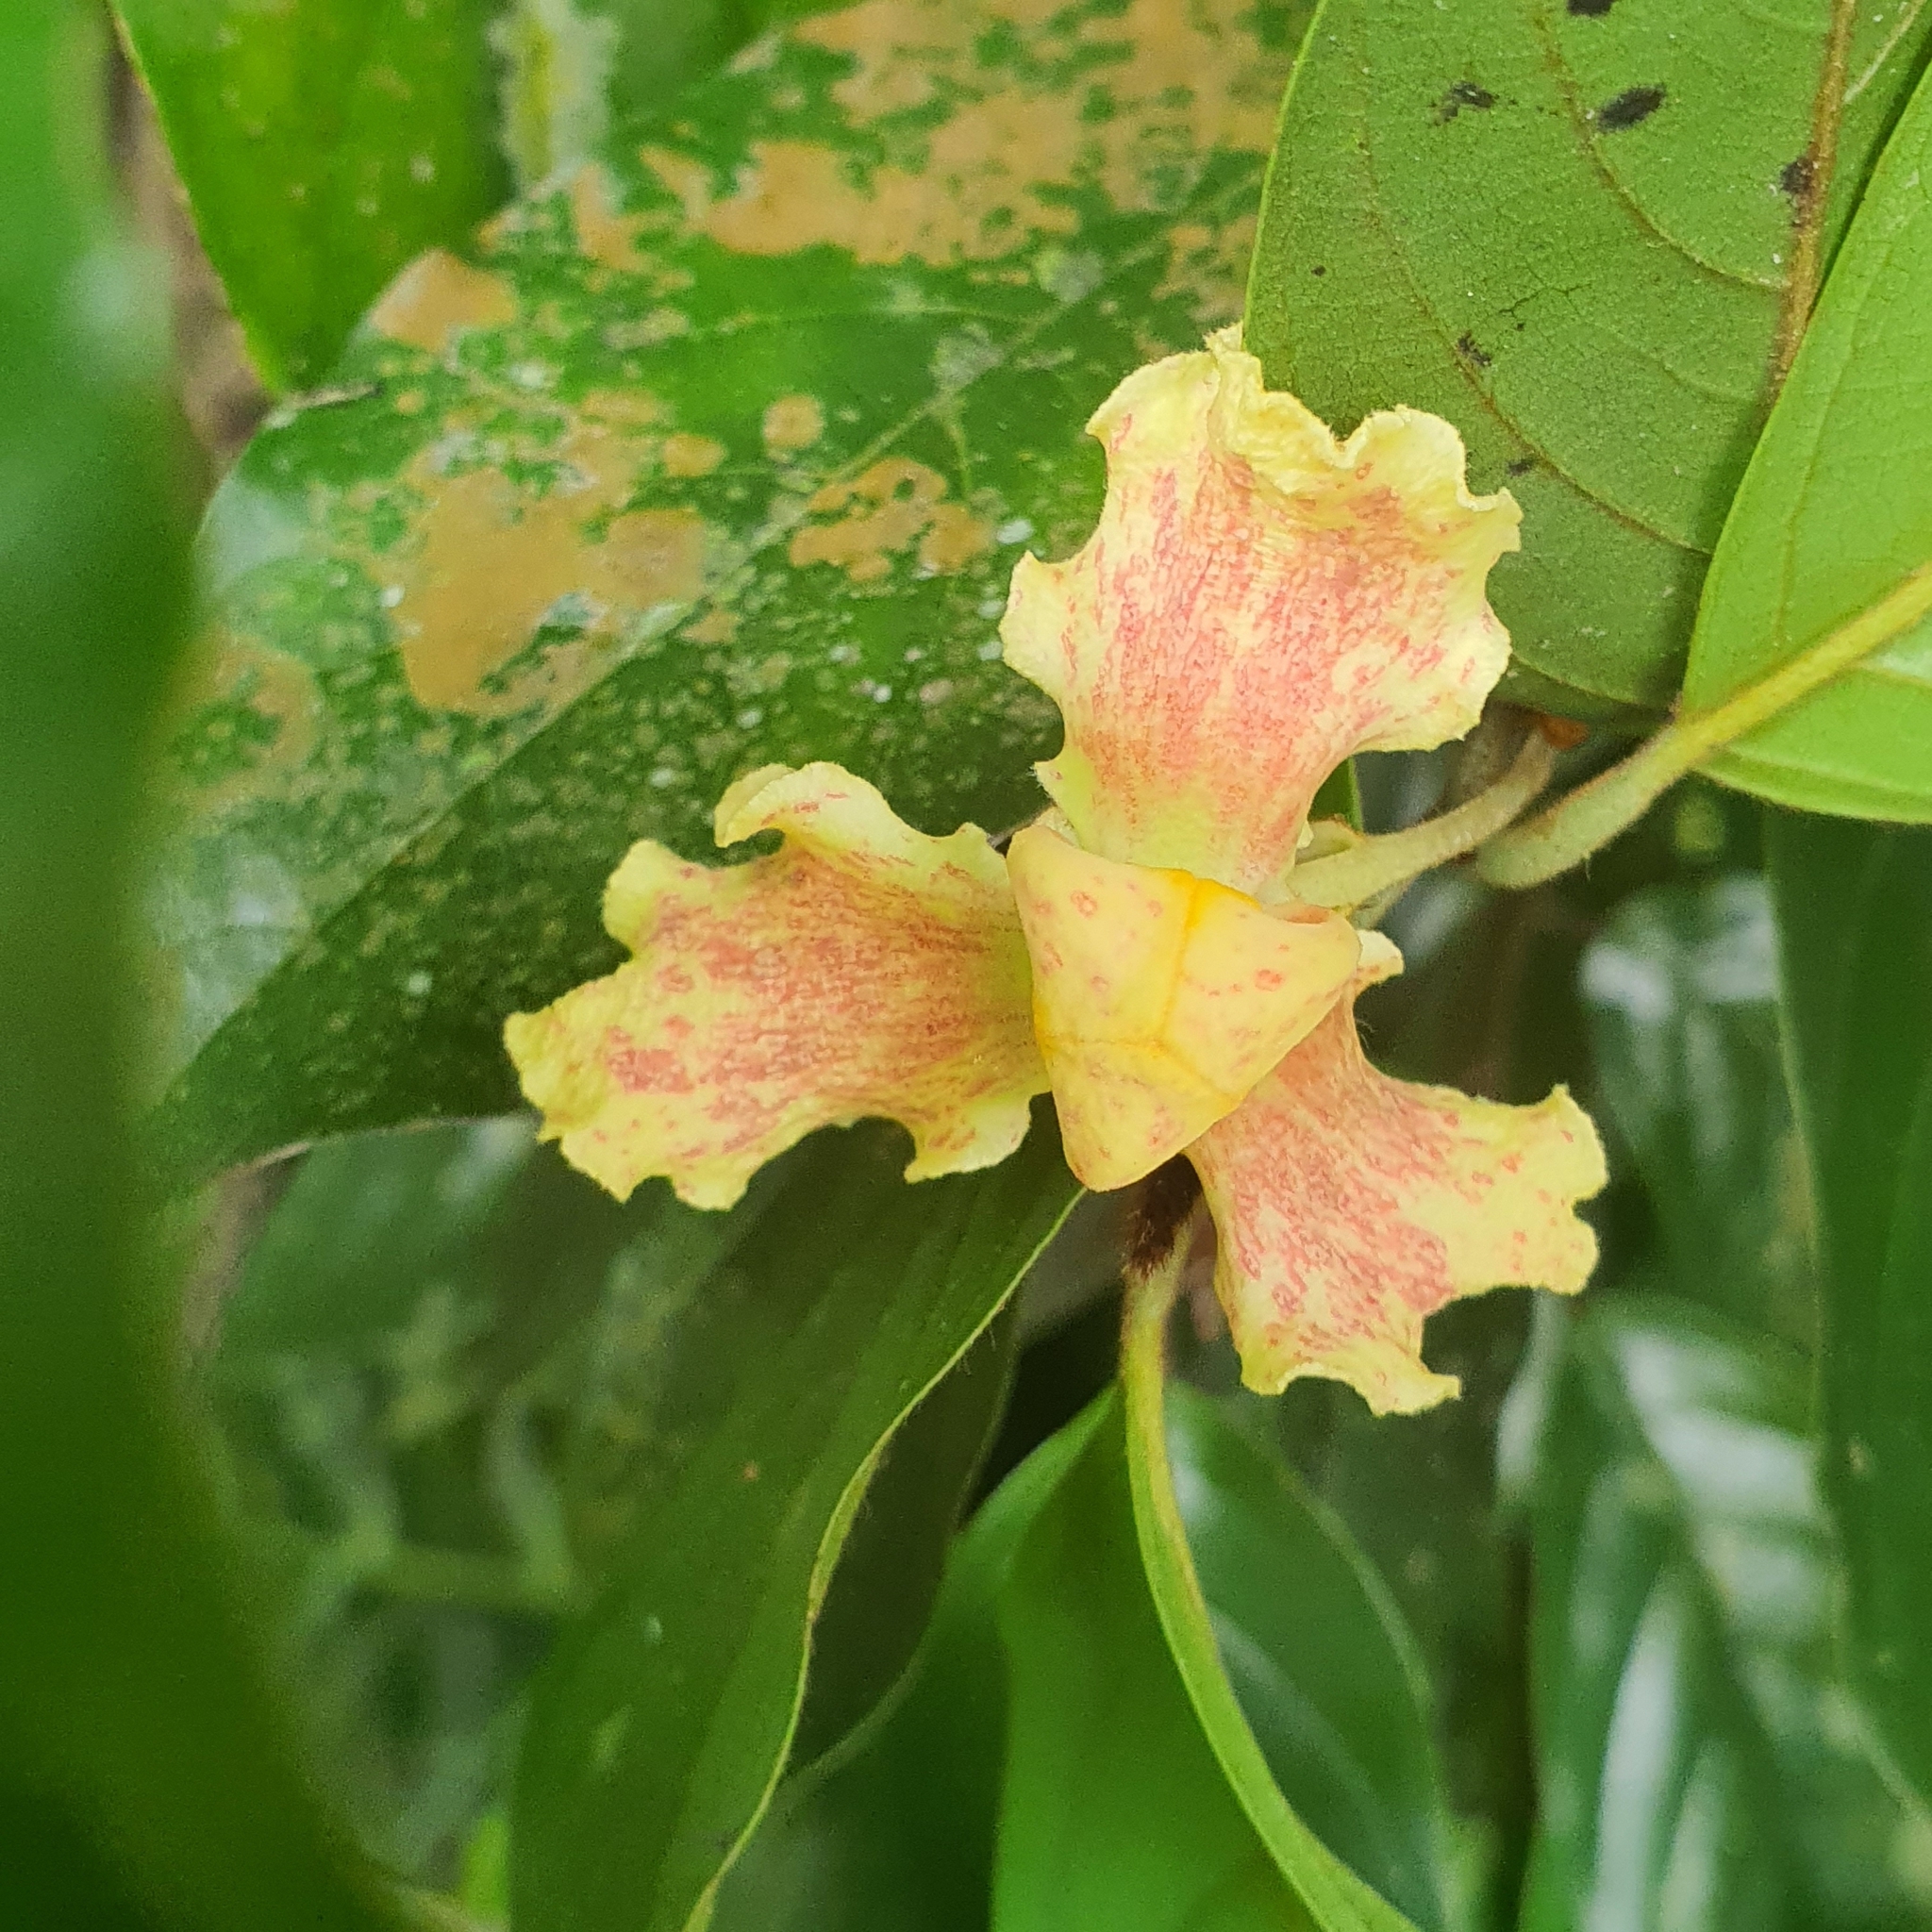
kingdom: Plantae
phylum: Tracheophyta
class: Magnoliopsida
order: Magnoliales
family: Annonaceae
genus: Mitrephora
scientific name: Mitrephora teysmannii
